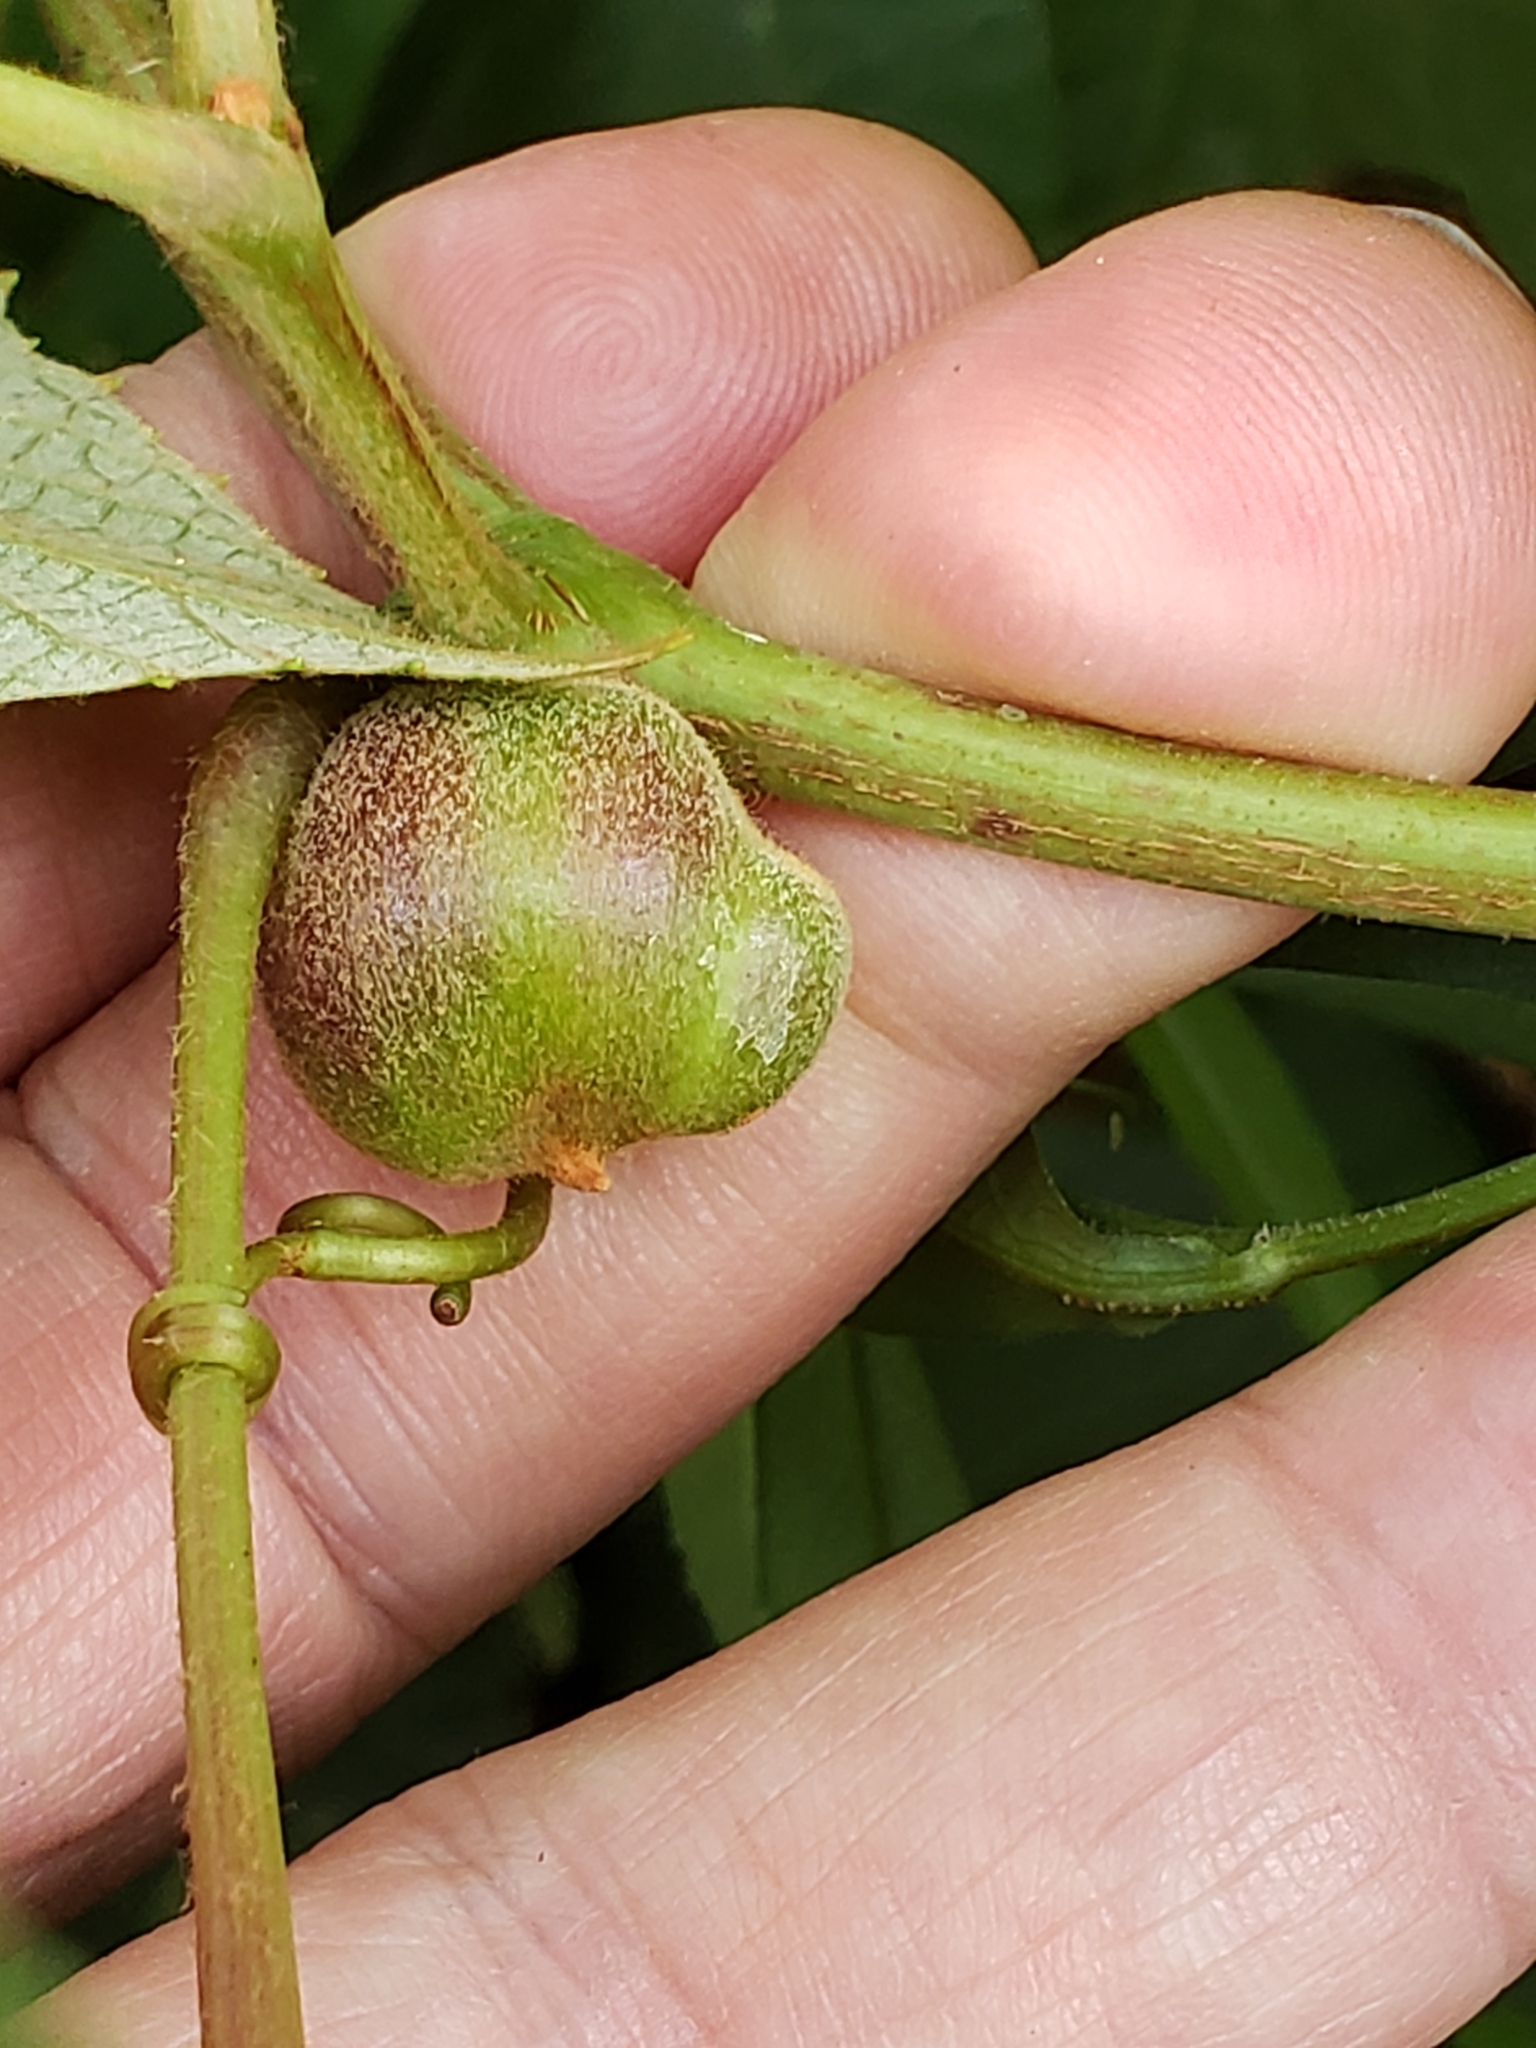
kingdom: Animalia
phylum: Arthropoda
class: Insecta
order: Diptera
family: Cecidomyiidae
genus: Ampelomyia
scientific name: Ampelomyia vitispomum
